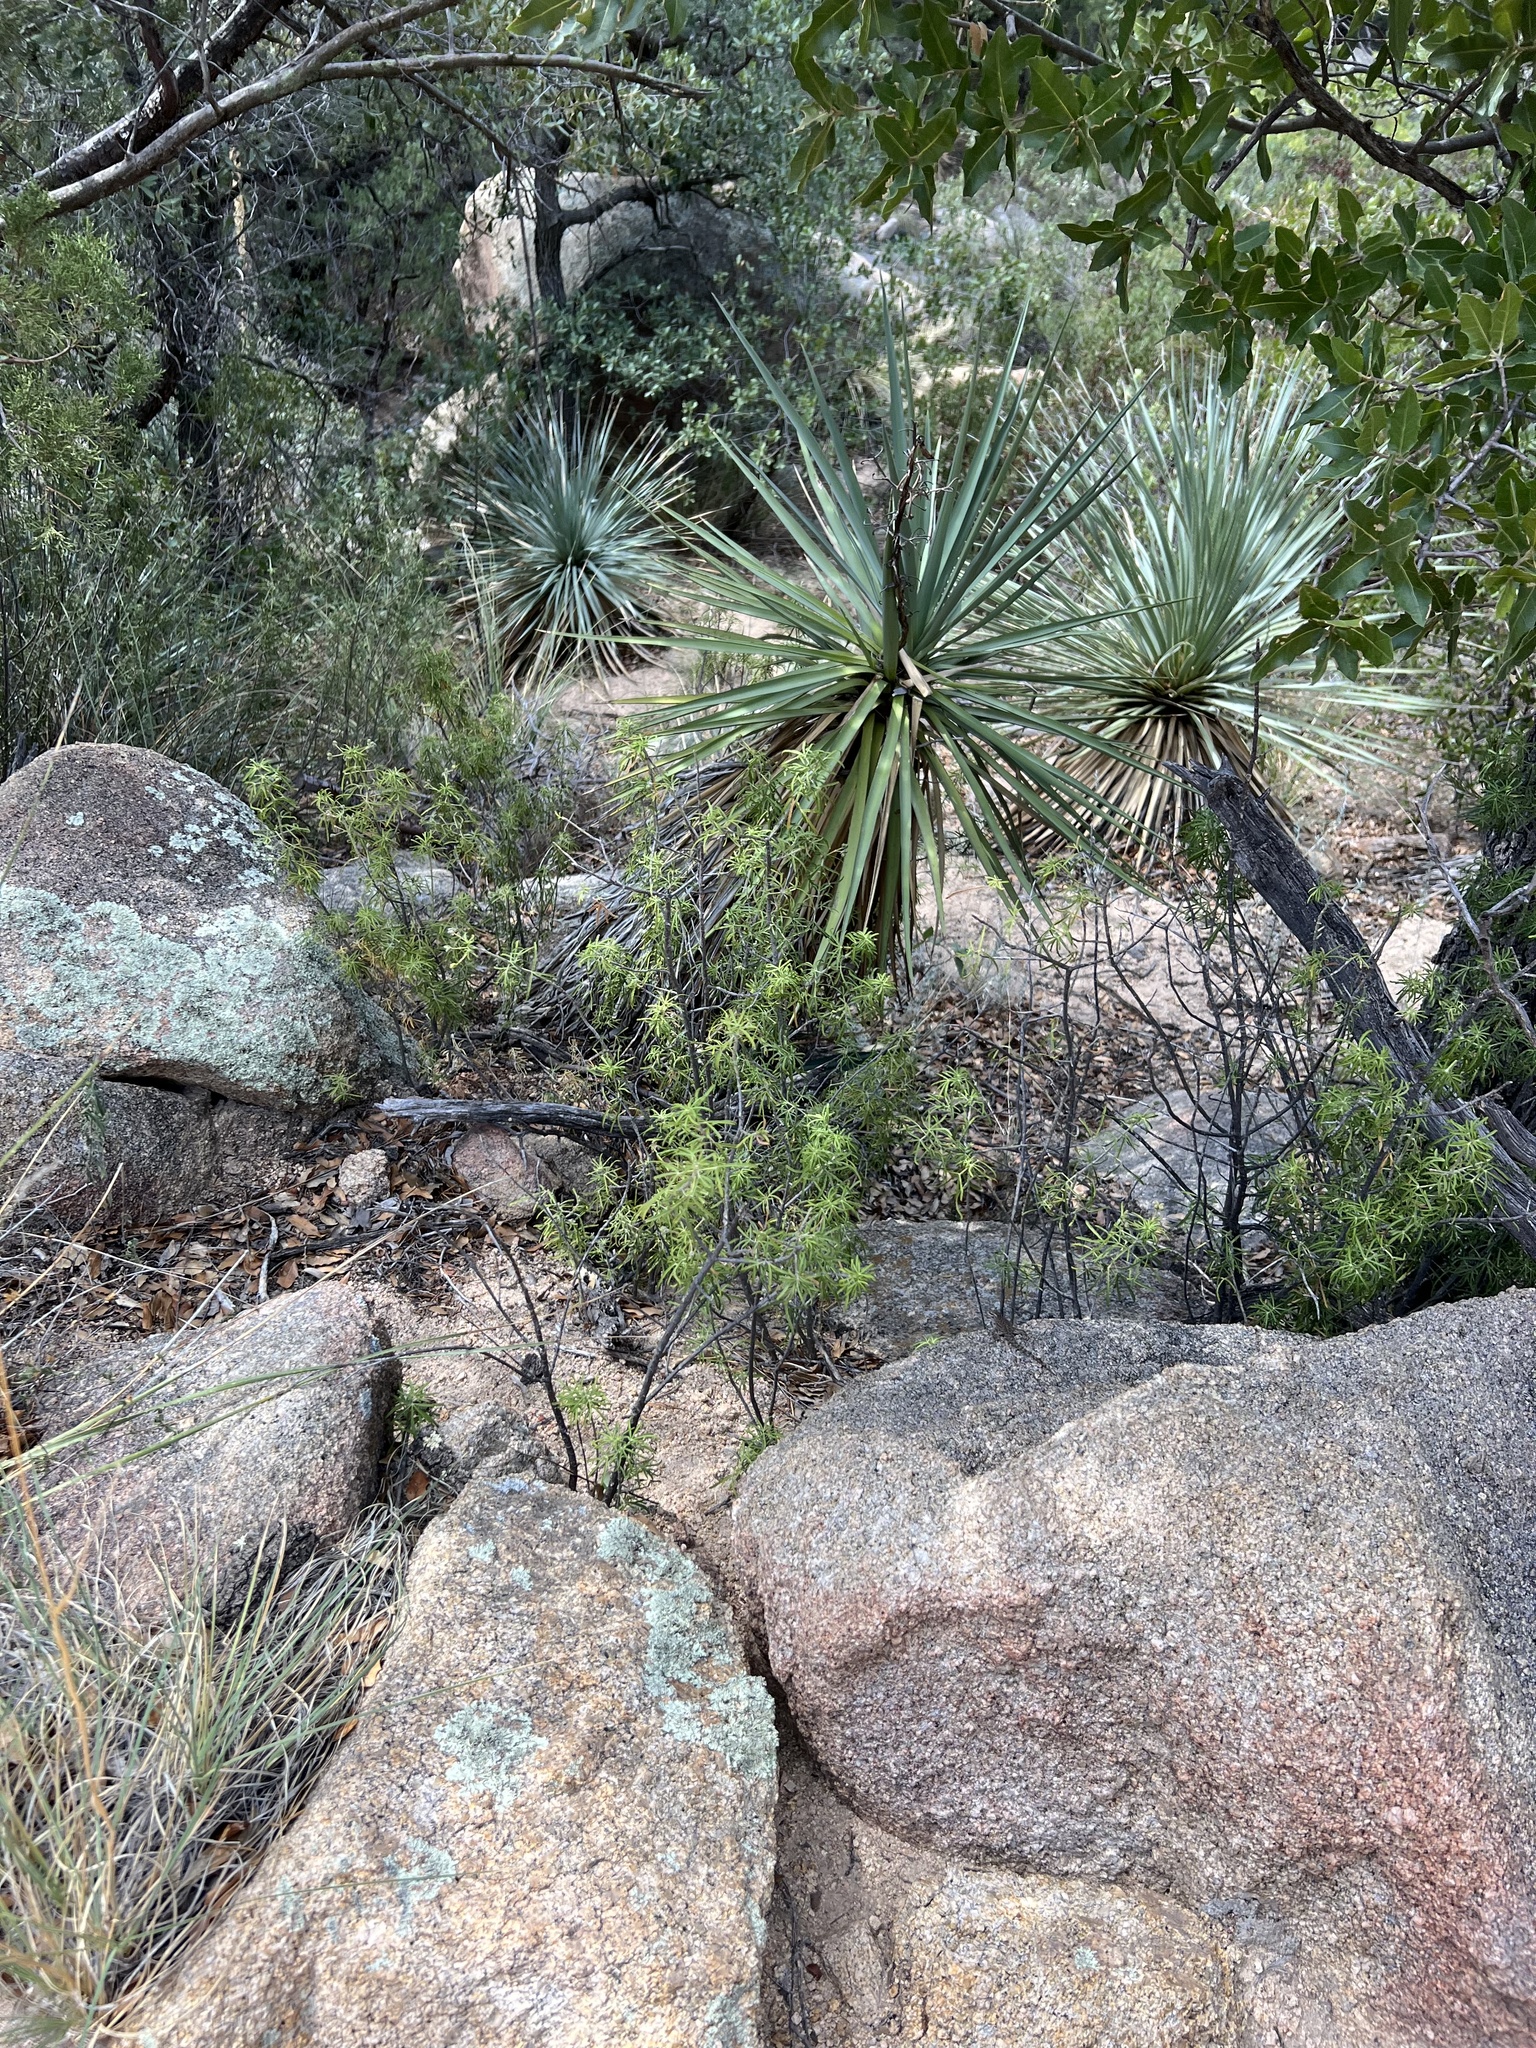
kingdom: Plantae
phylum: Tracheophyta
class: Liliopsida
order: Asparagales
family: Asparagaceae
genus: Yucca
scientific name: Yucca schottii
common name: Hoary yucca
